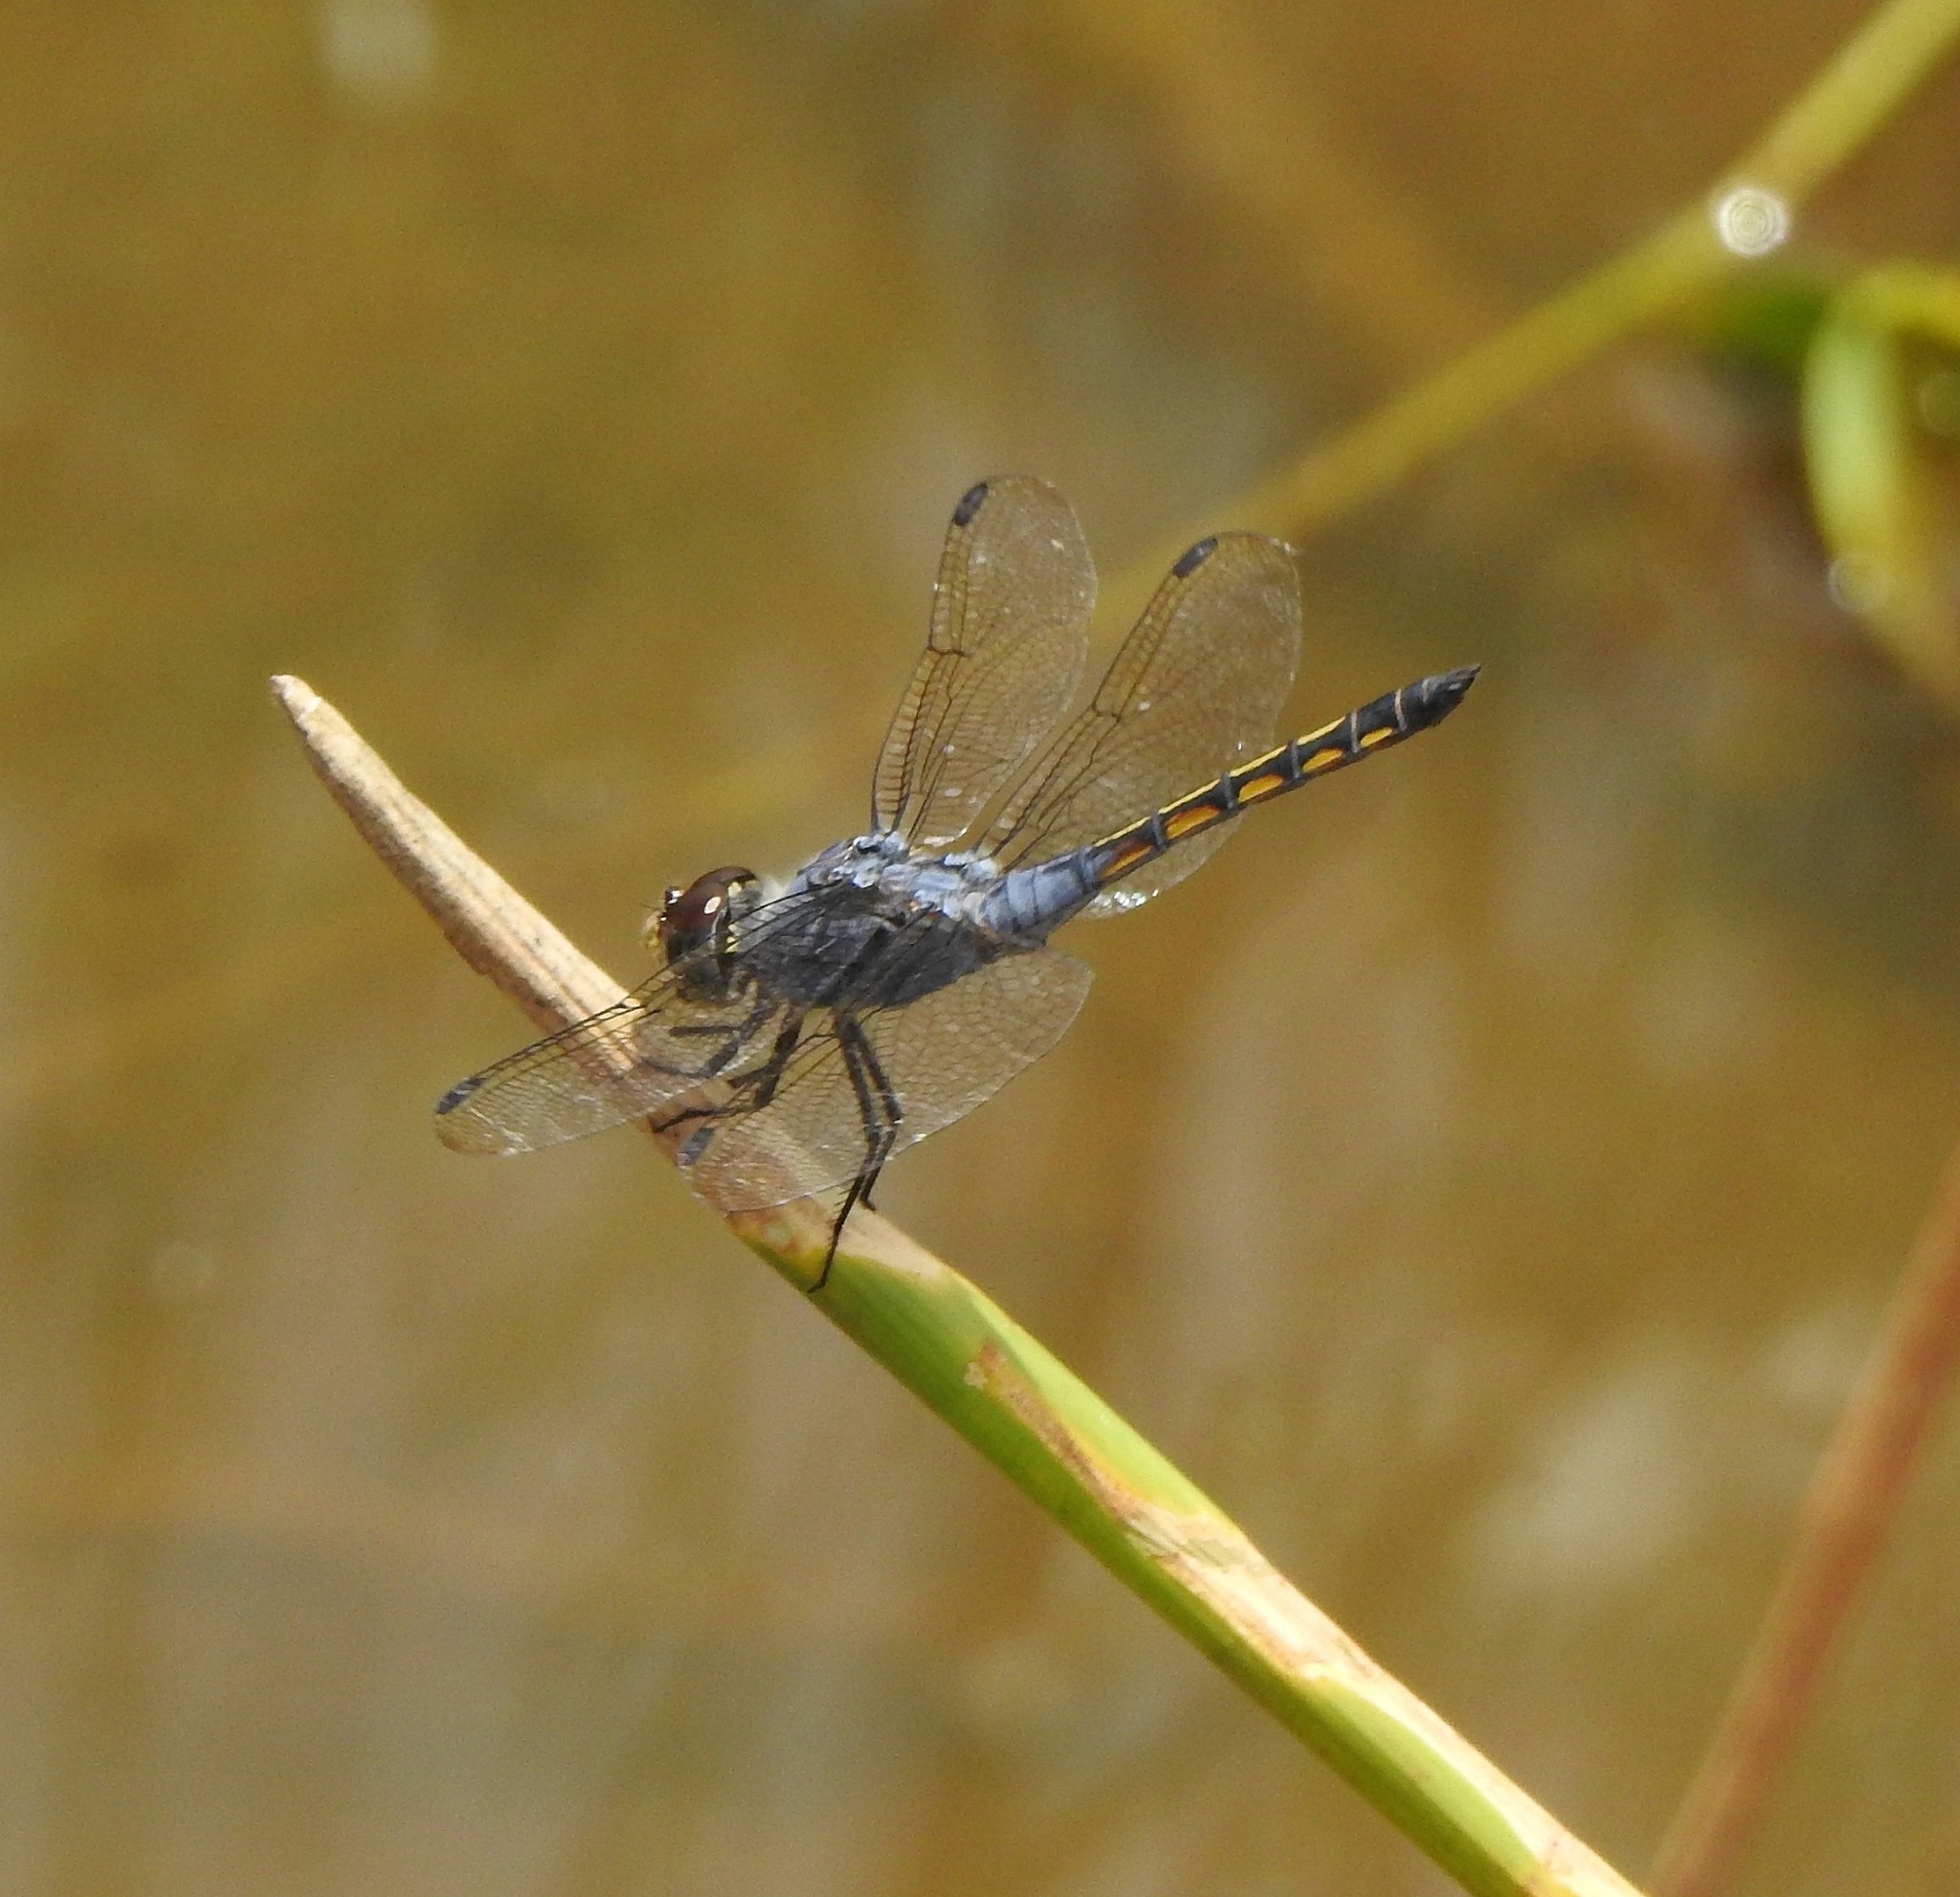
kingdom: Animalia
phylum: Arthropoda
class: Insecta
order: Odonata
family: Libellulidae
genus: Potamarcha
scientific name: Potamarcha congener
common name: Blue chaser
